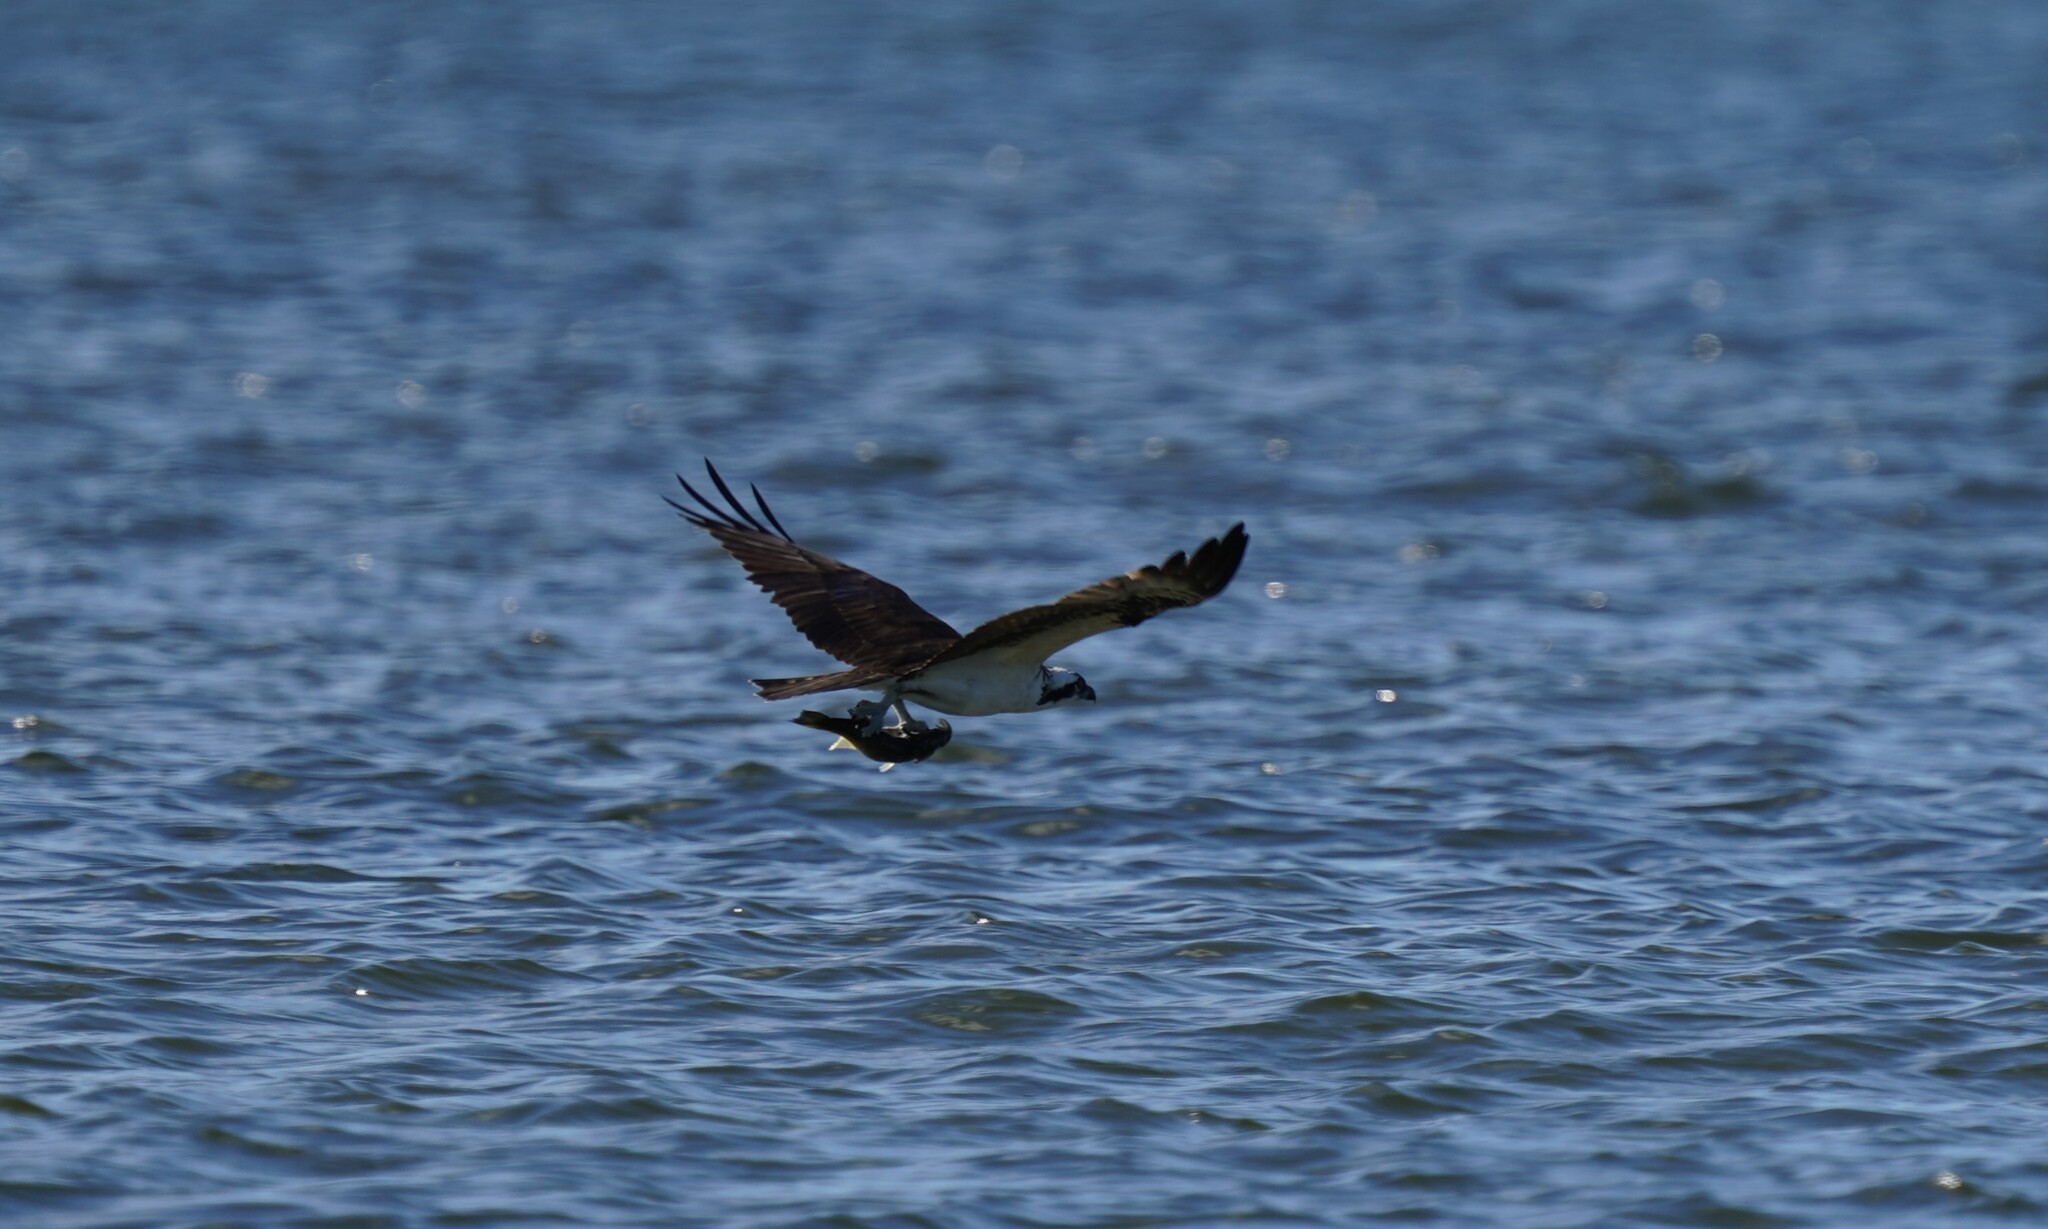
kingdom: Animalia
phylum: Chordata
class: Aves
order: Accipitriformes
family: Pandionidae
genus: Pandion
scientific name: Pandion haliaetus
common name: Osprey
